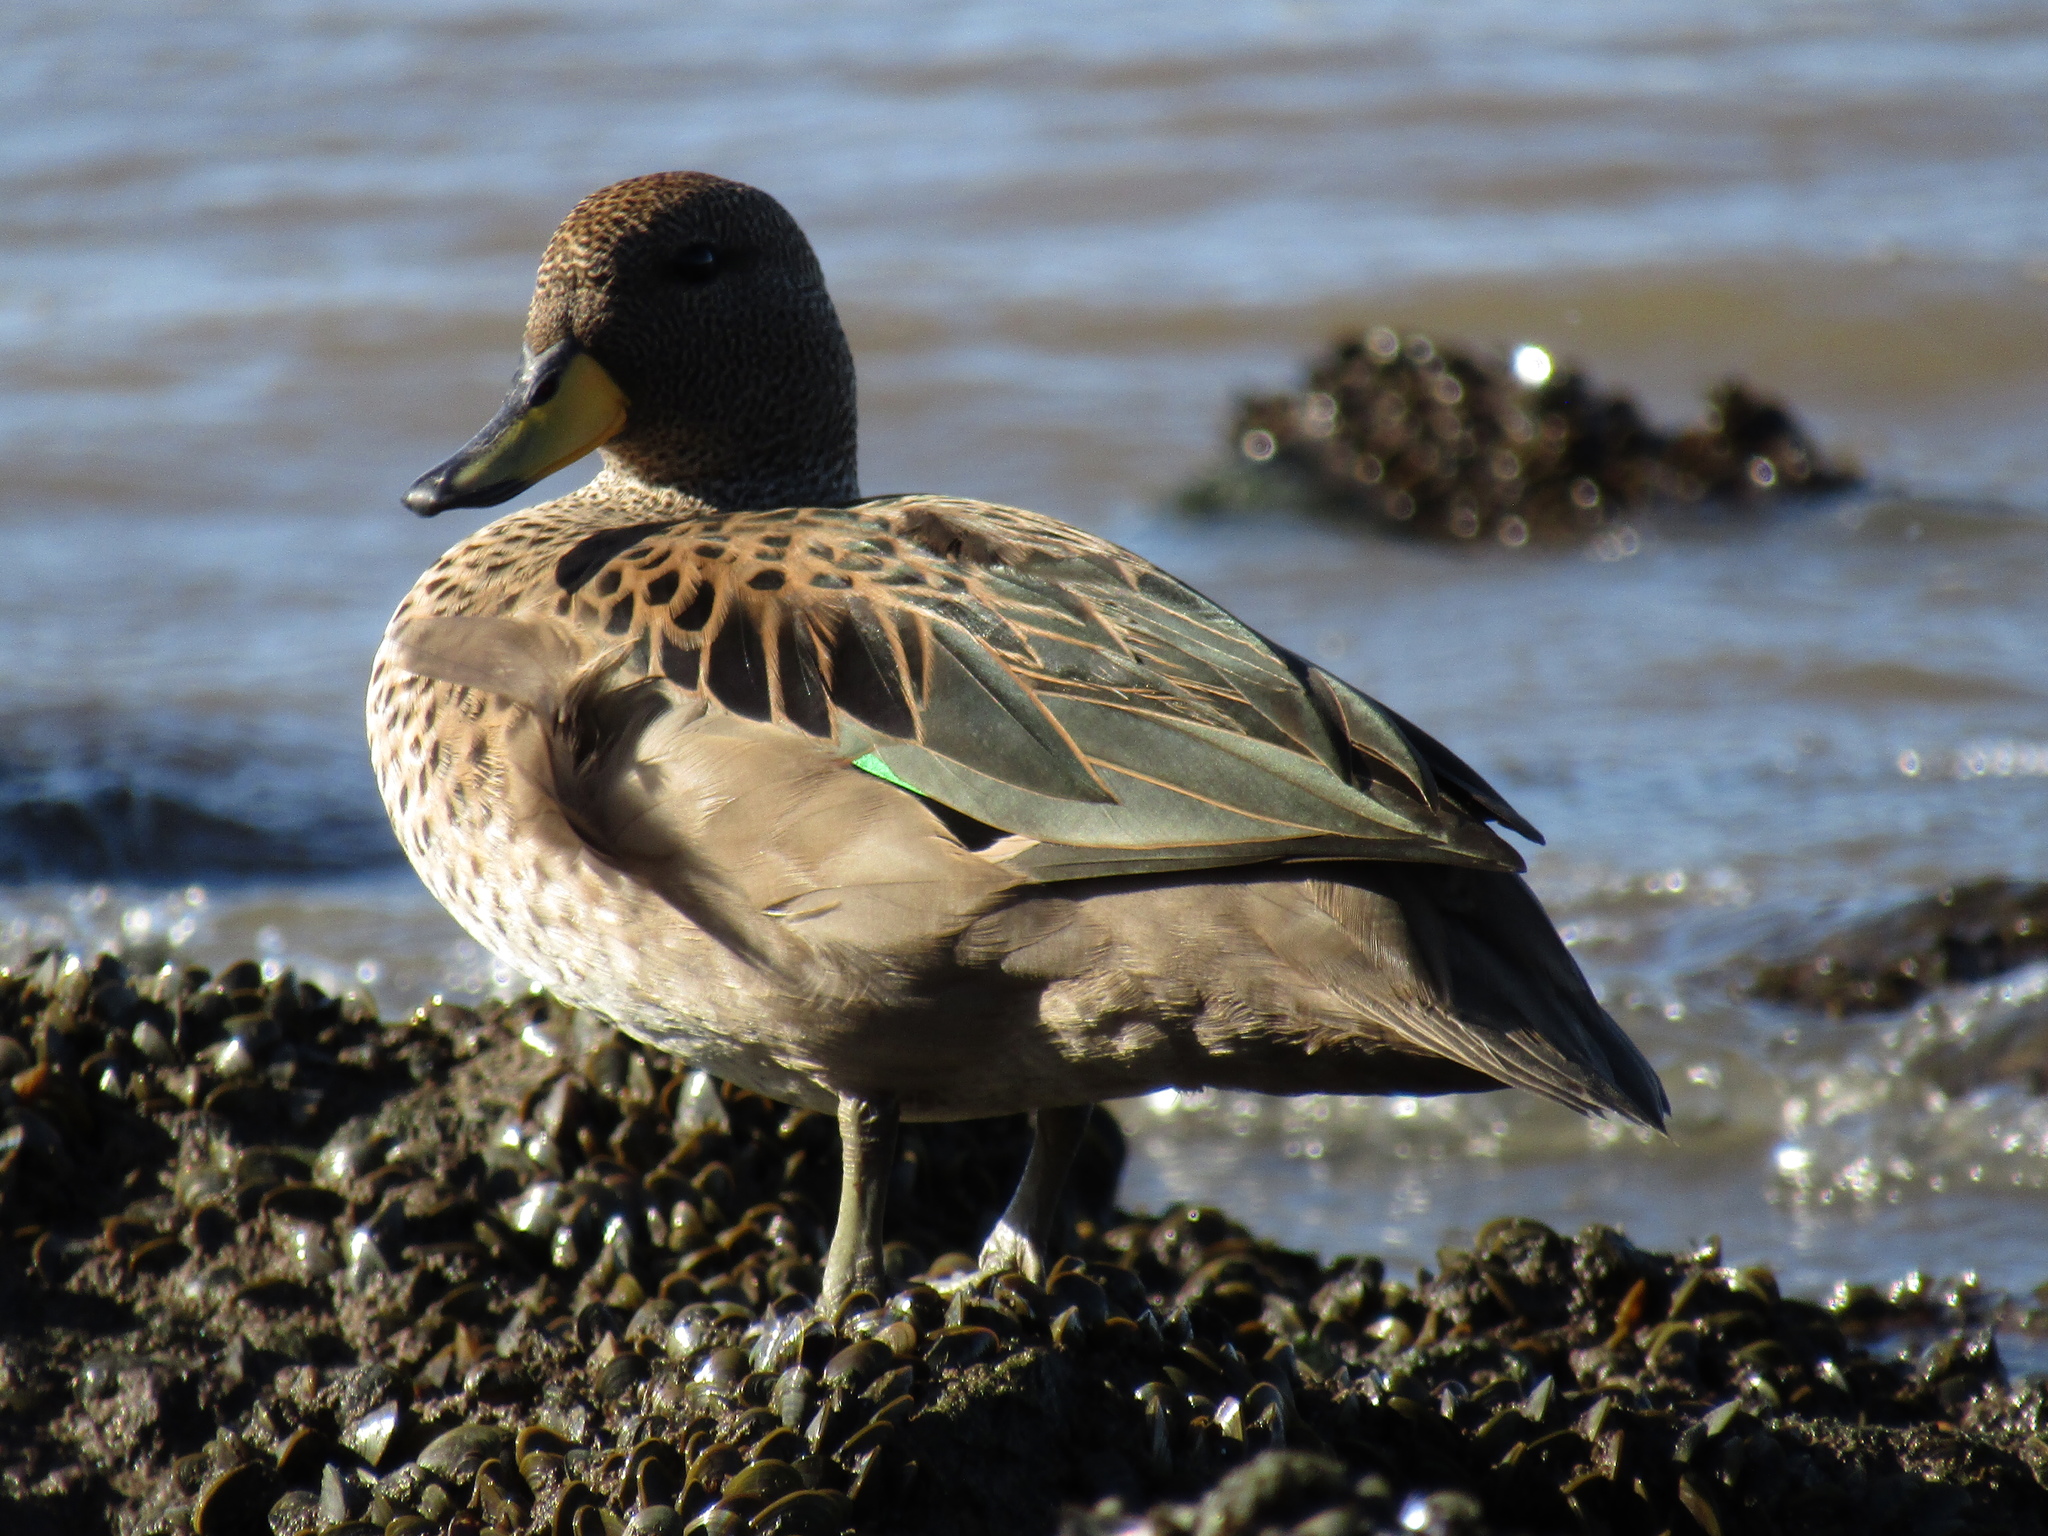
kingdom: Animalia
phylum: Chordata
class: Aves
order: Anseriformes
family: Anatidae
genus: Anas
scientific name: Anas flavirostris
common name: Yellow-billed teal
